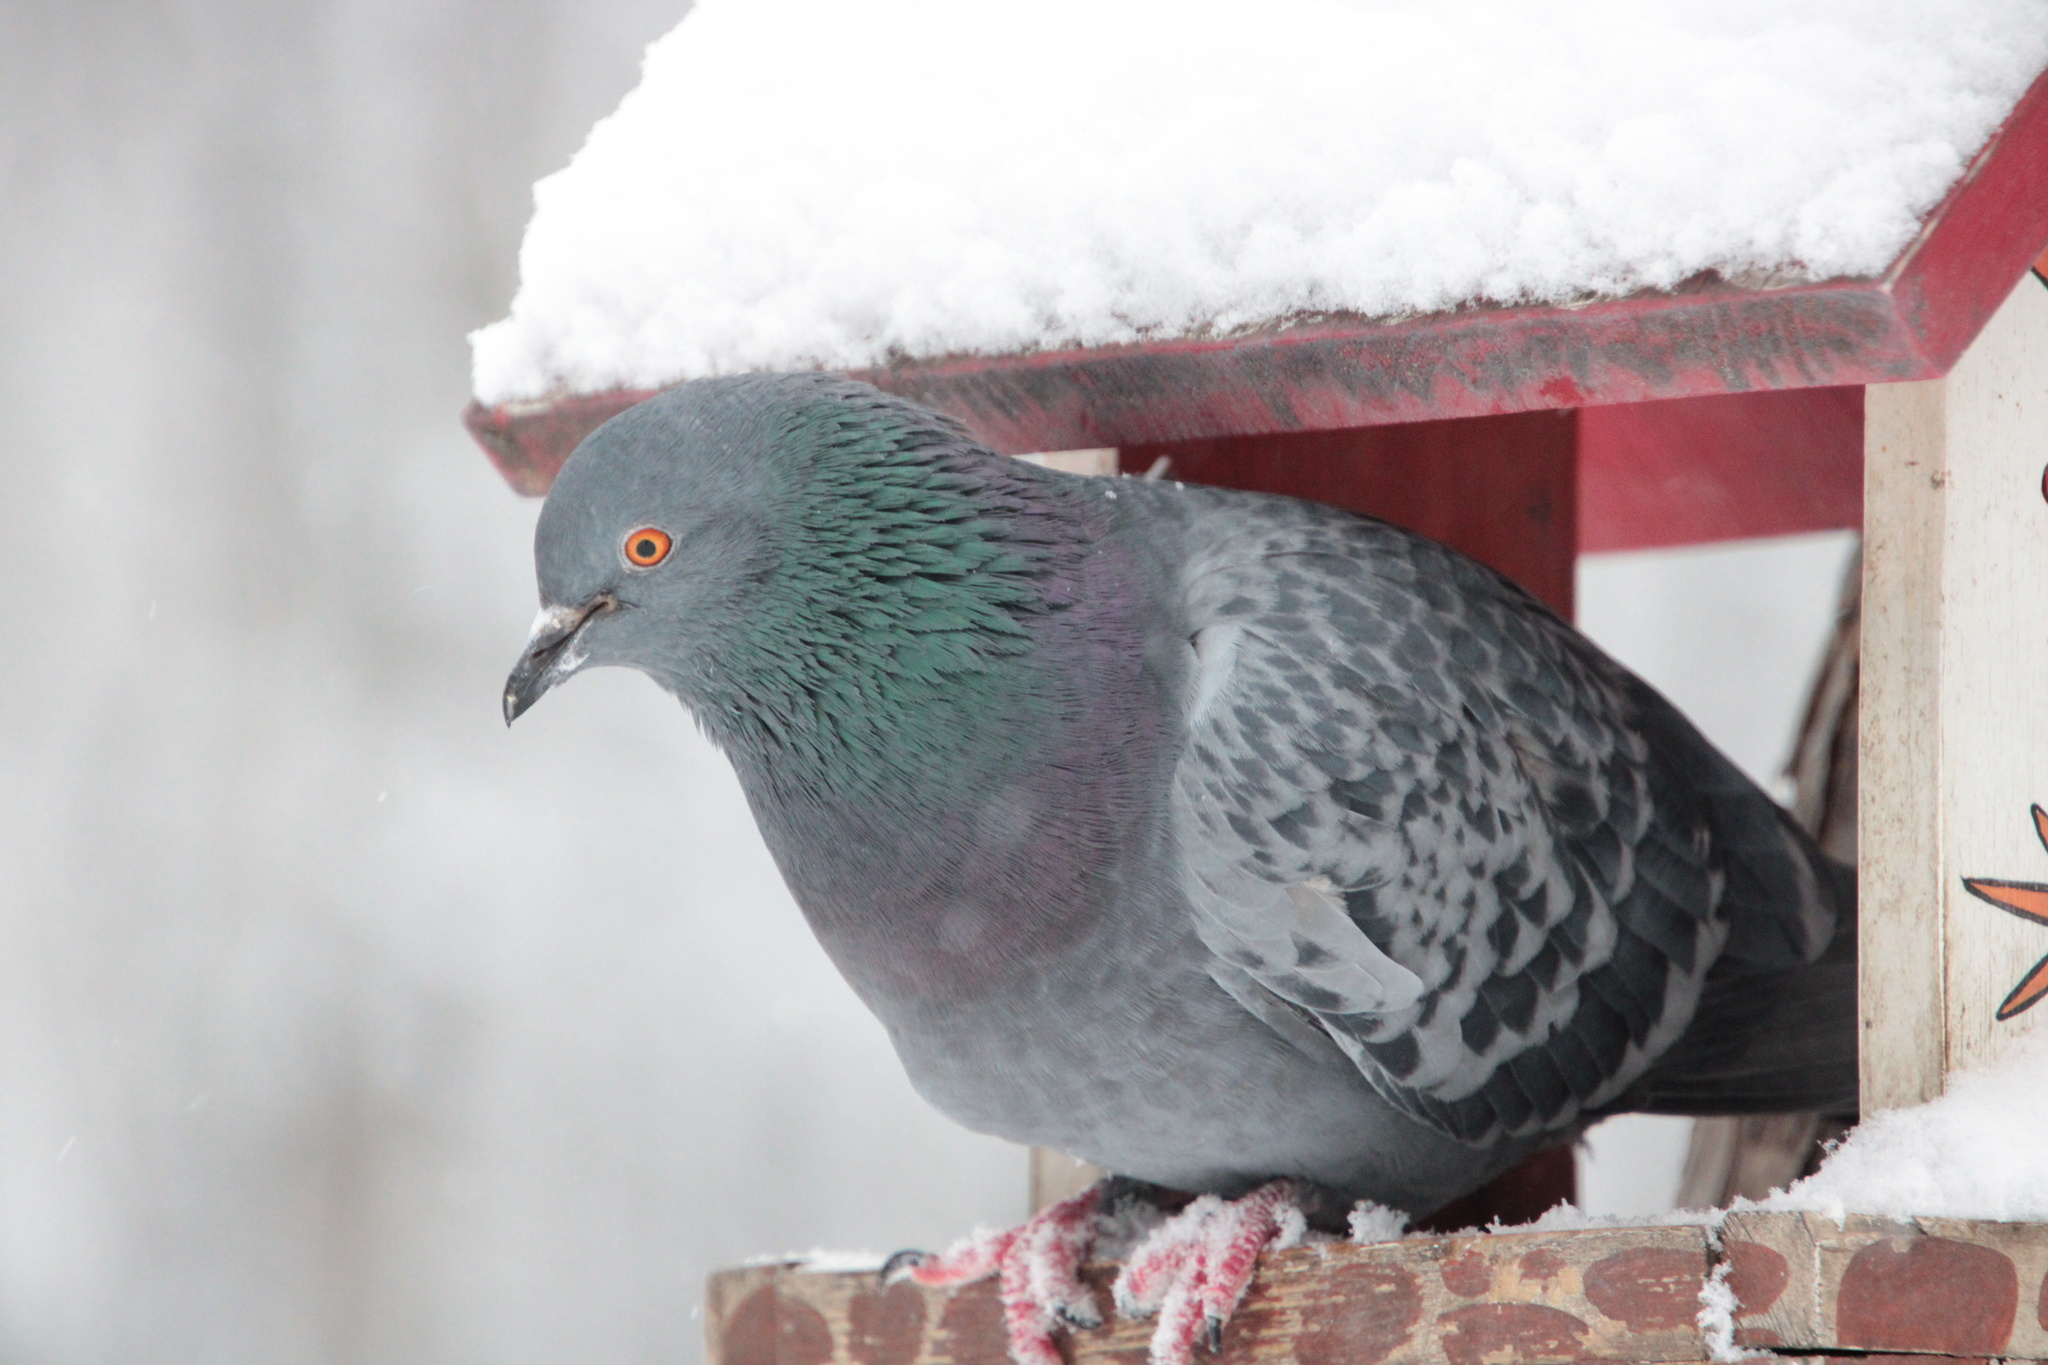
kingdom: Animalia
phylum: Chordata
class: Aves
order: Columbiformes
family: Columbidae
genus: Columba
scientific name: Columba livia
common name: Rock pigeon
